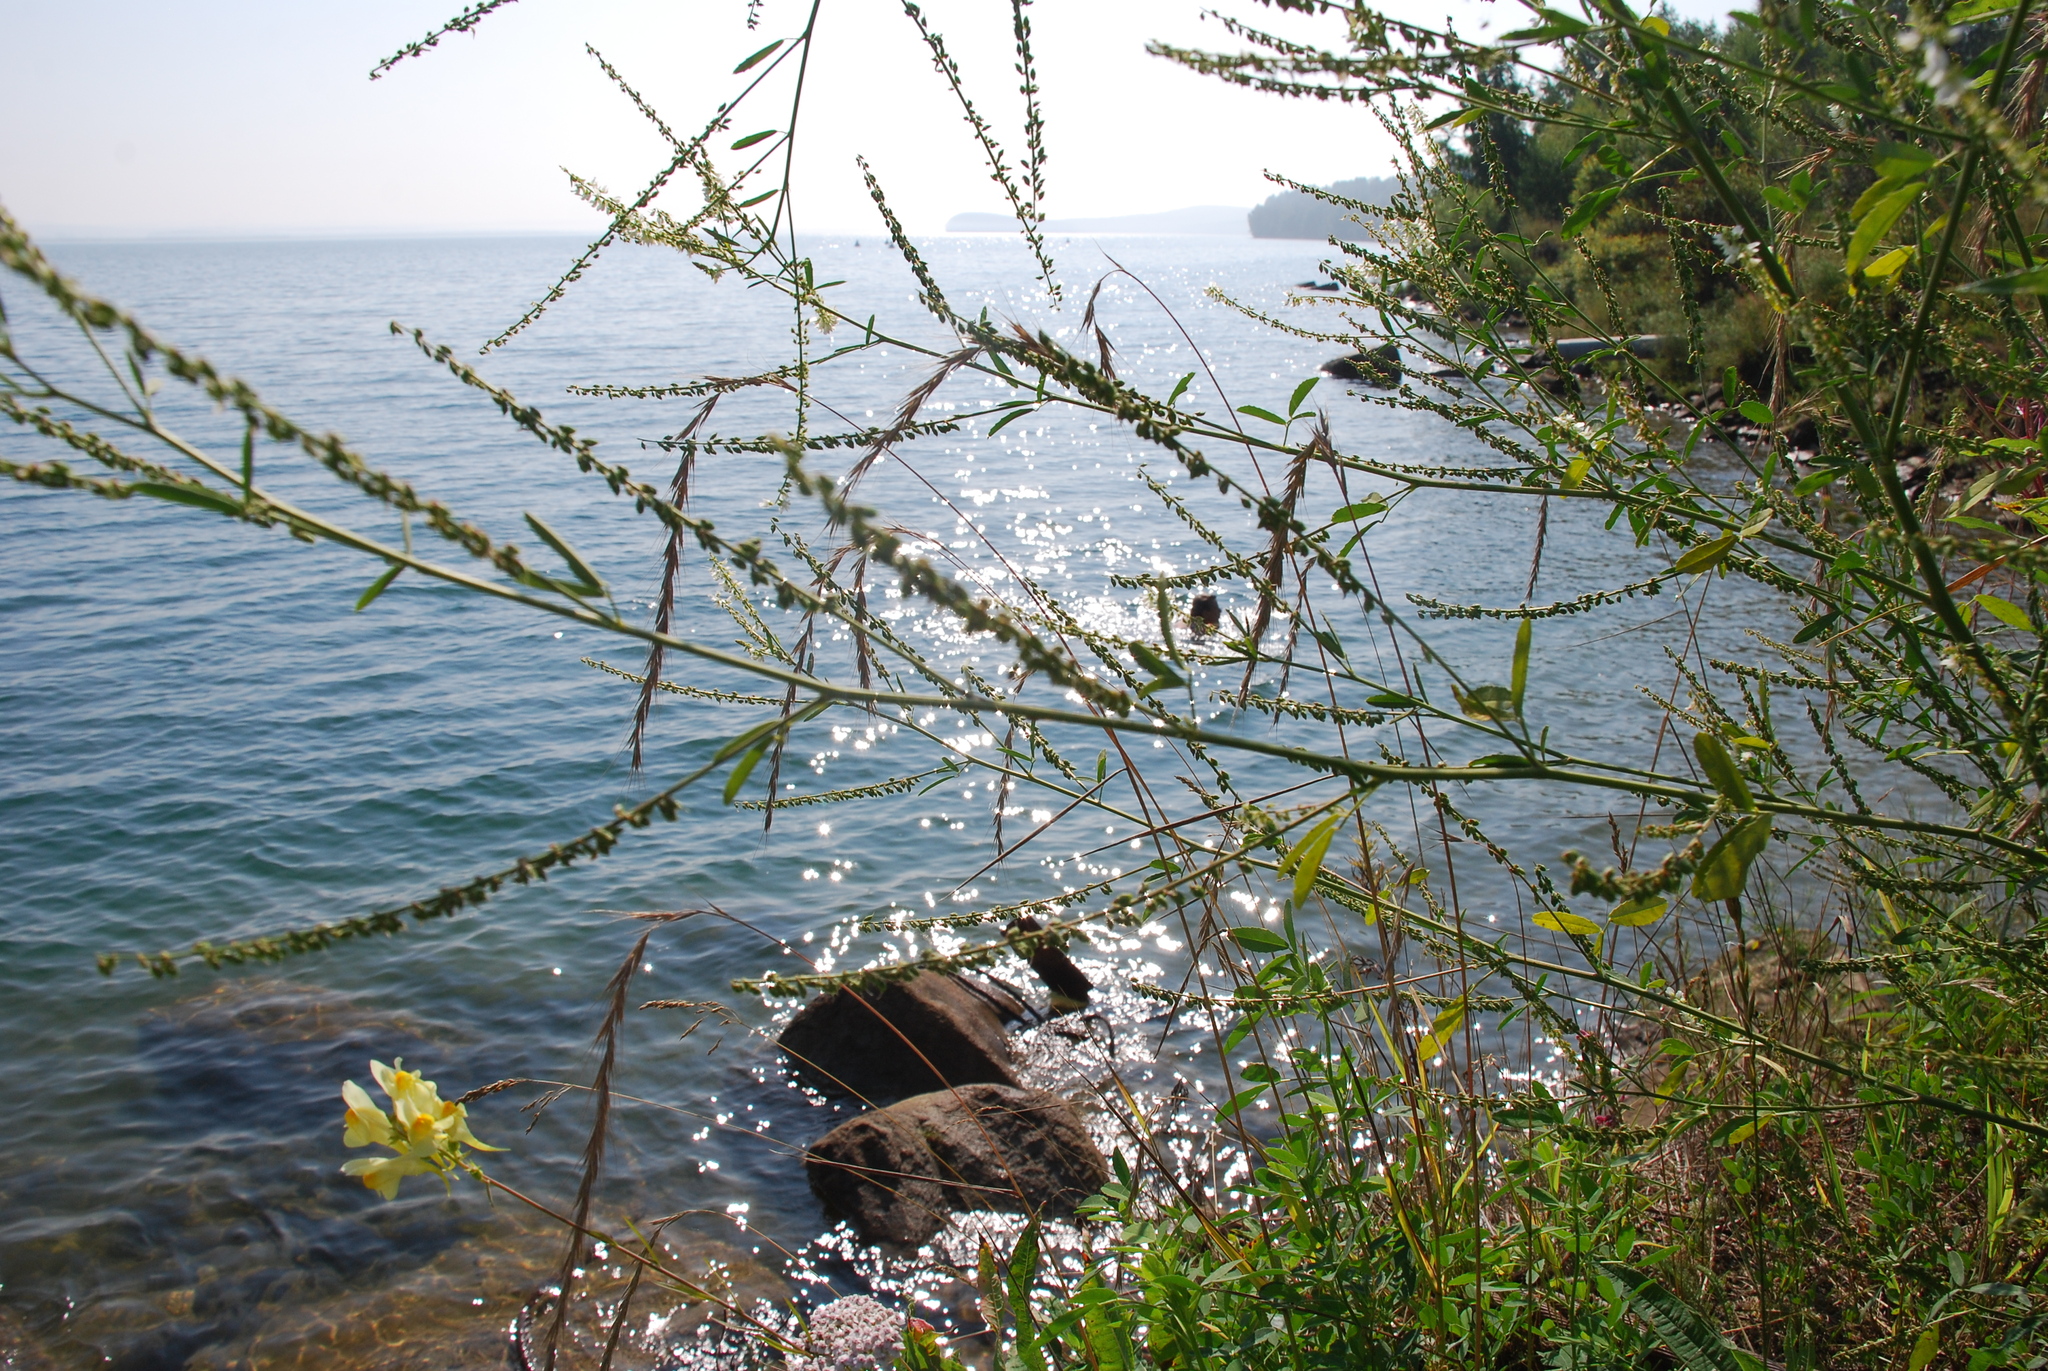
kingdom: Plantae
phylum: Tracheophyta
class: Magnoliopsida
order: Fabales
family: Fabaceae
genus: Melilotus
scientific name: Melilotus albus
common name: White melilot
